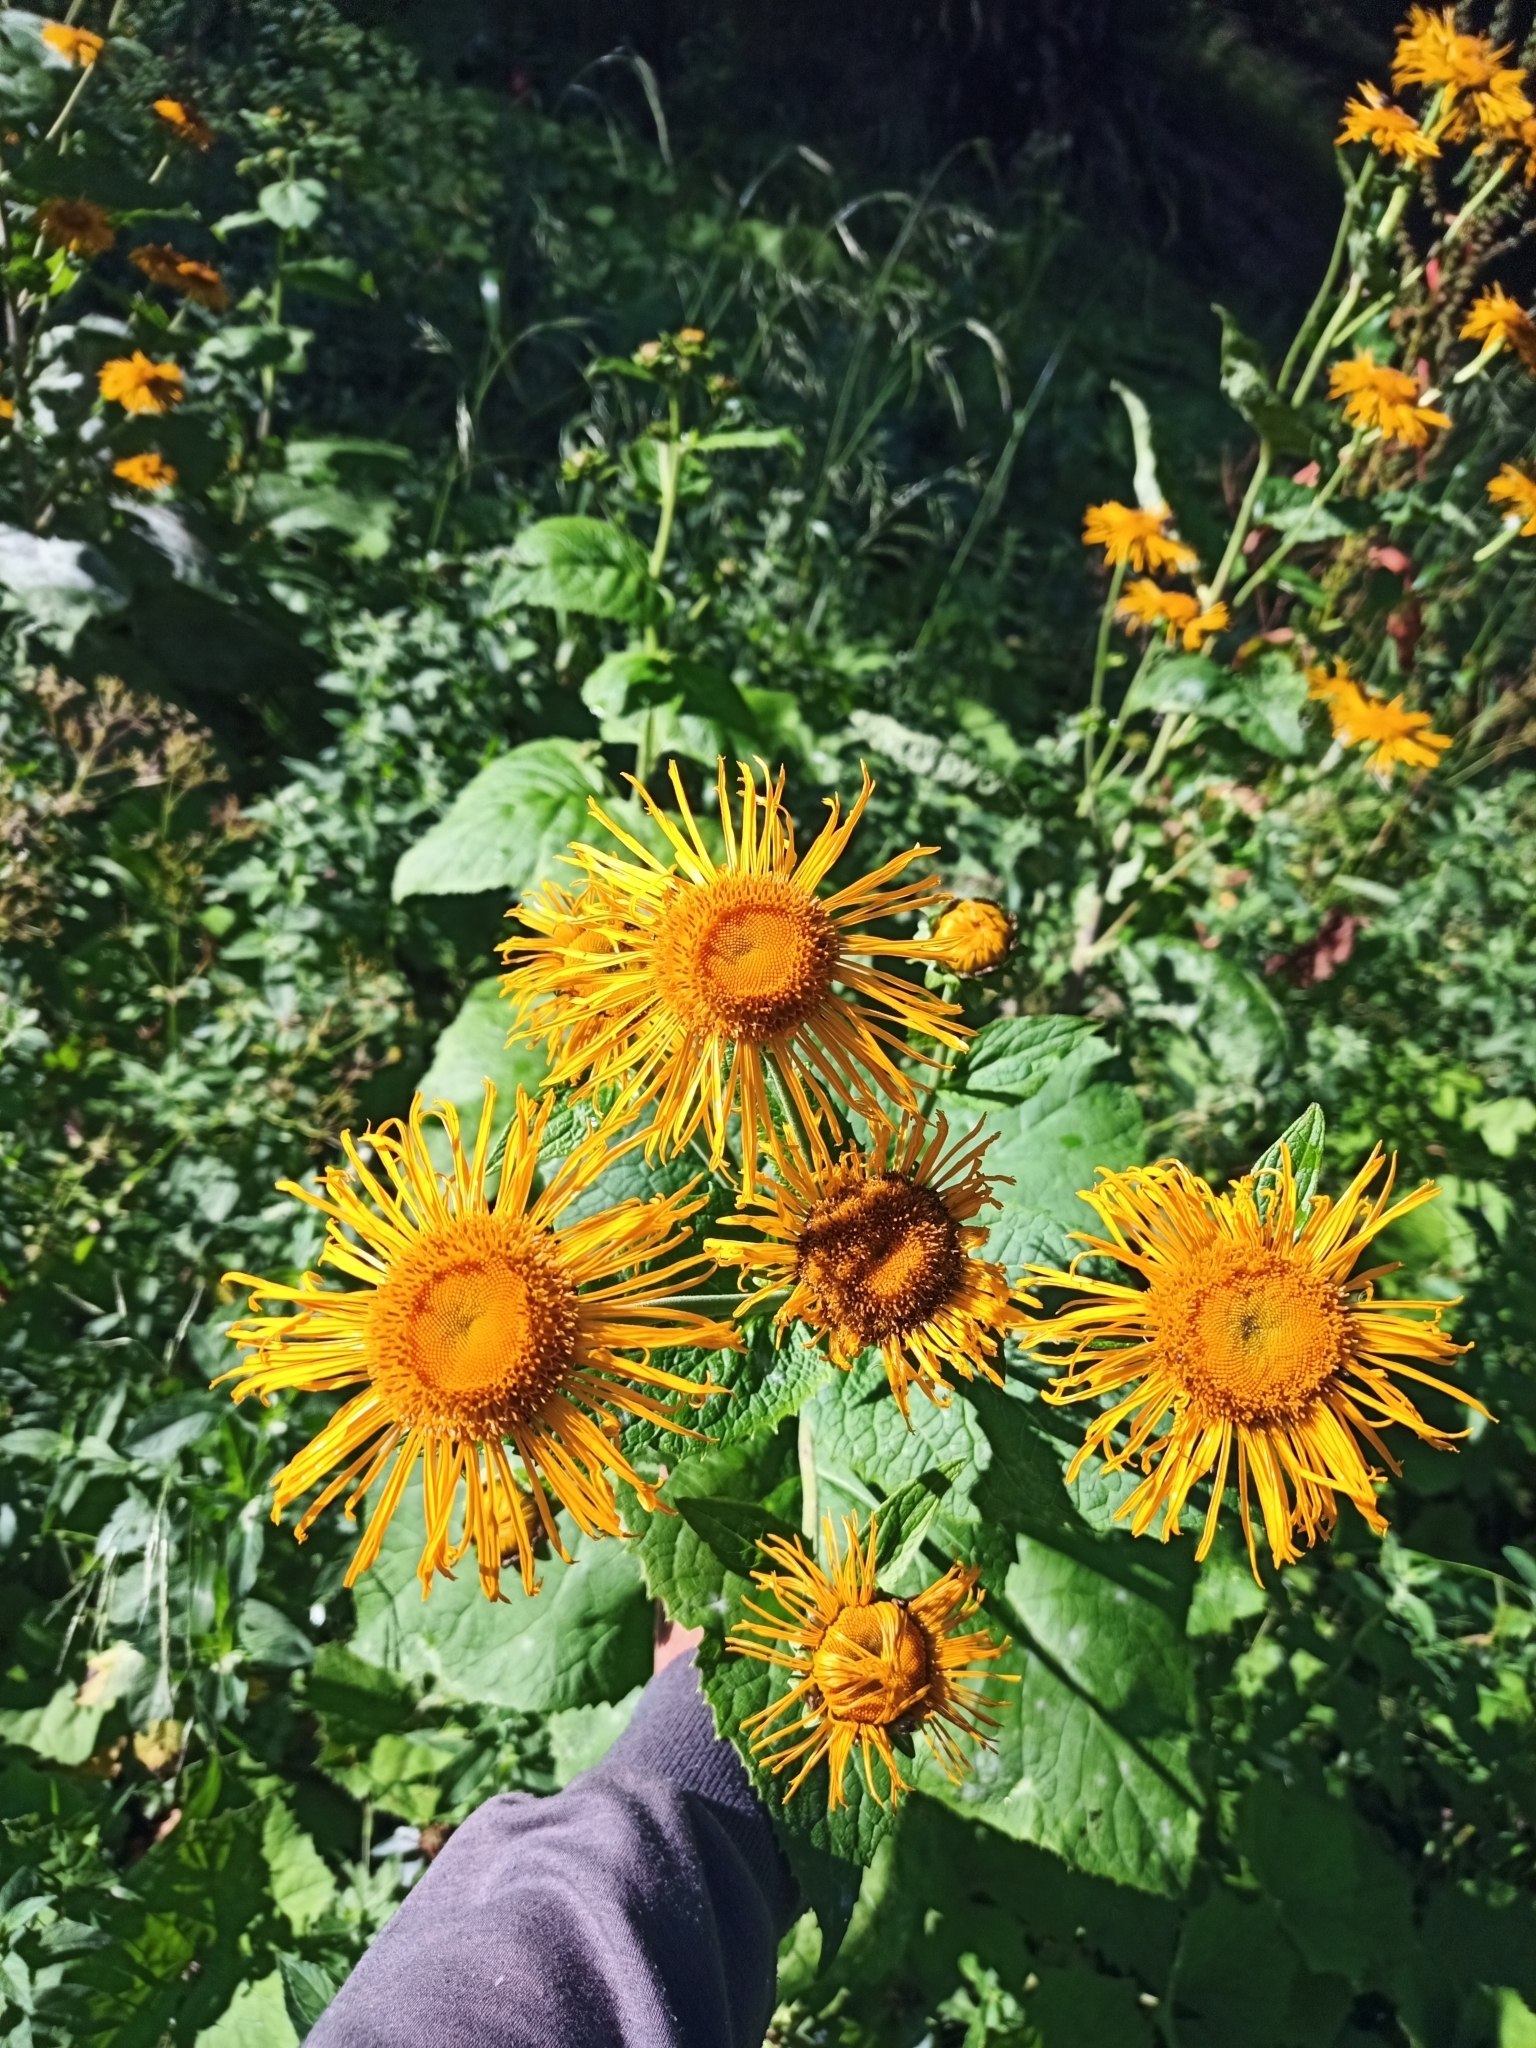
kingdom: Plantae
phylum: Tracheophyta
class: Magnoliopsida
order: Asterales
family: Asteraceae
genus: Telekia
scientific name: Telekia speciosa
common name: Yellow oxeye
